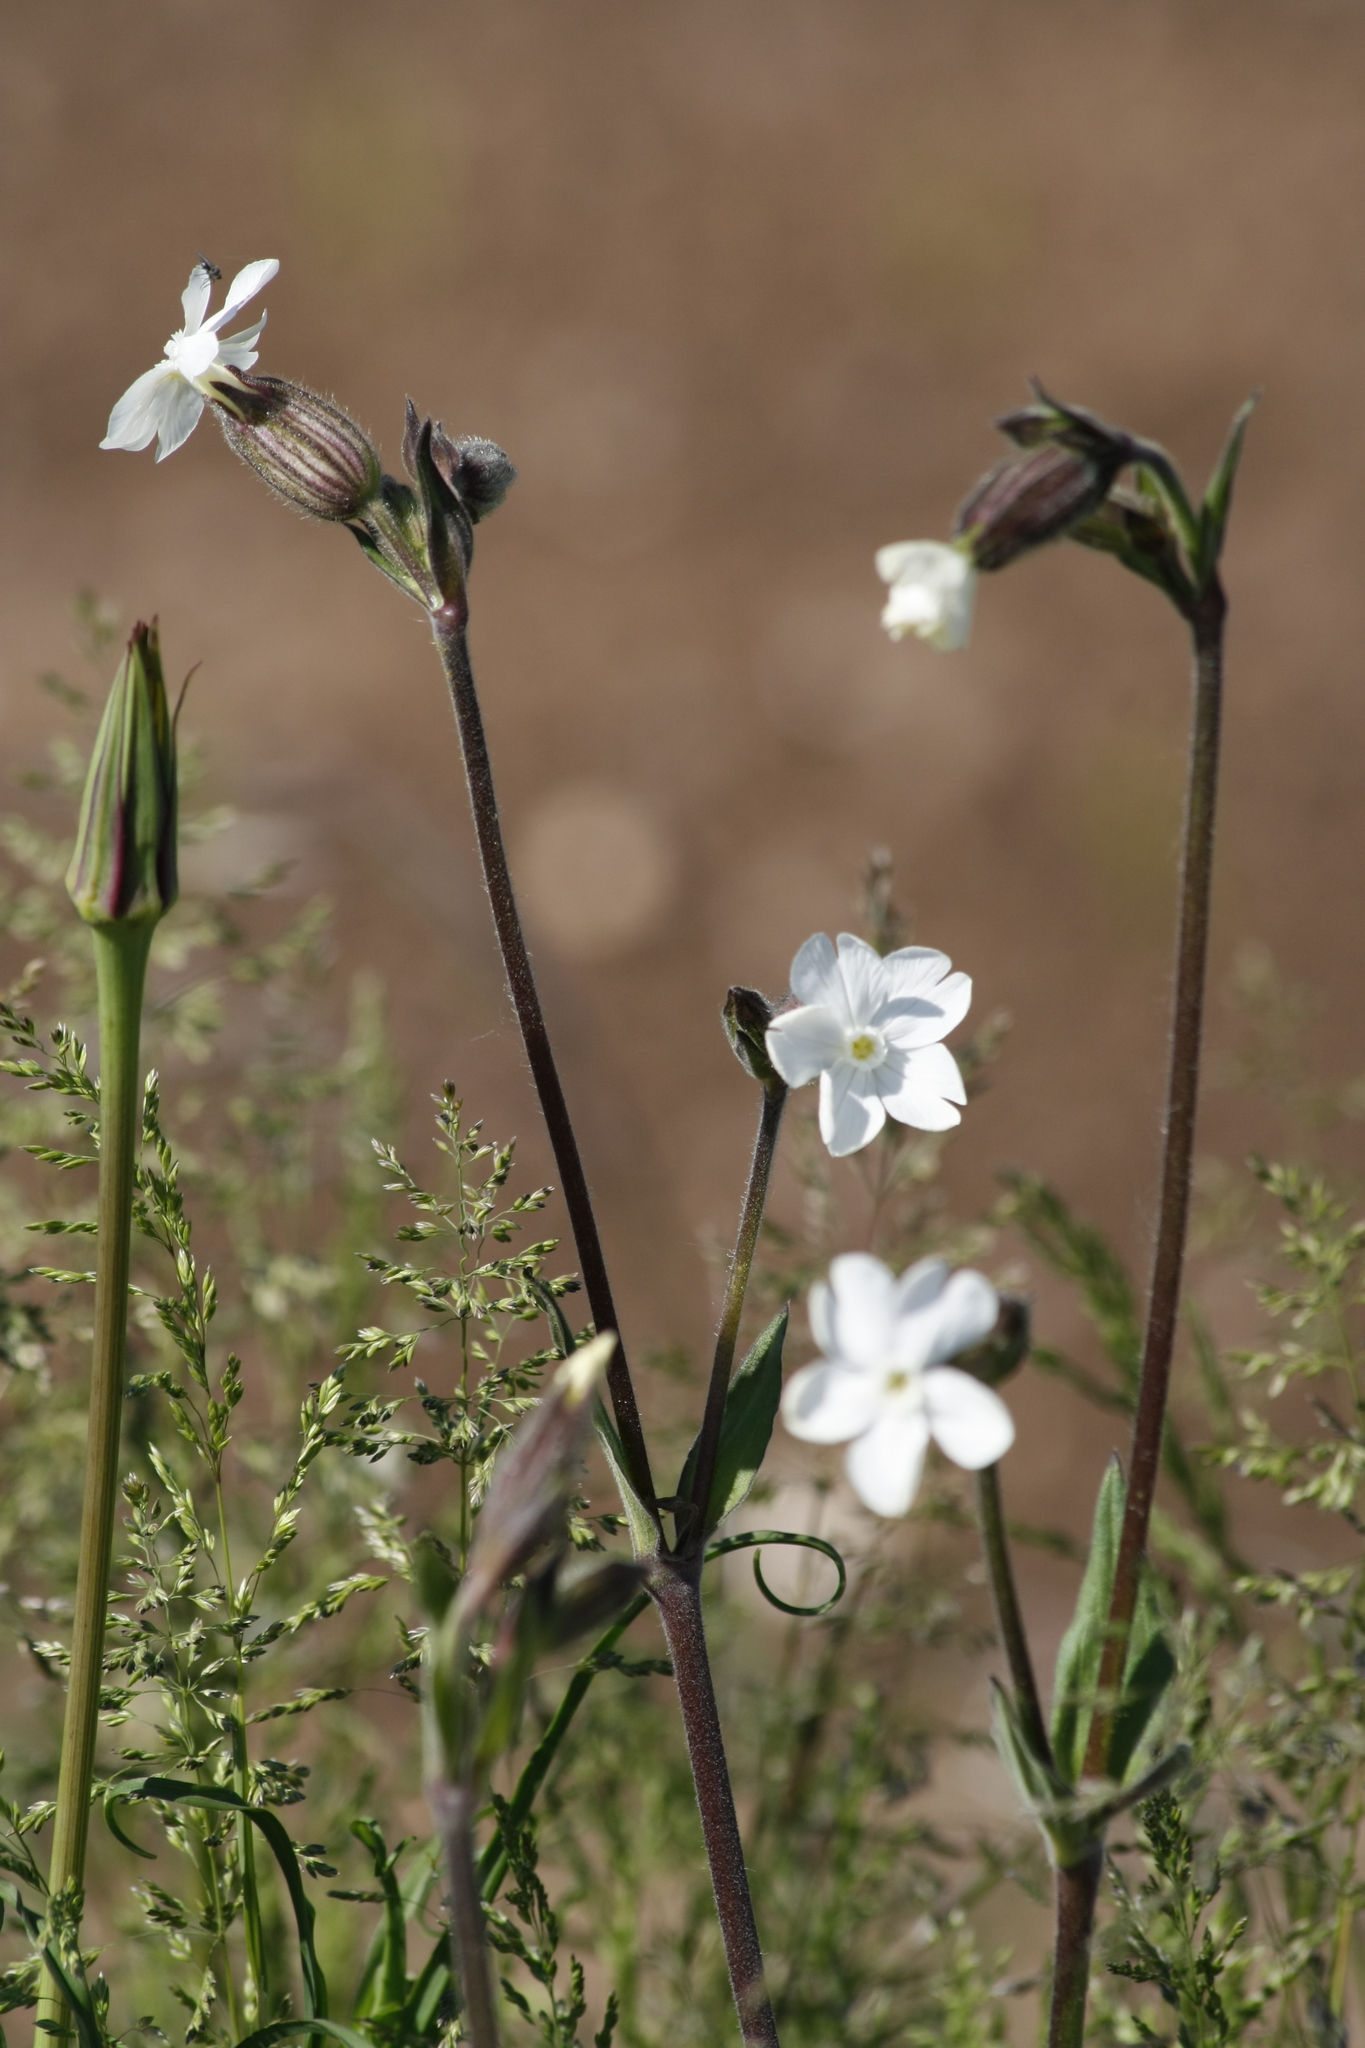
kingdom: Plantae
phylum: Tracheophyta
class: Magnoliopsida
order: Caryophyllales
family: Caryophyllaceae
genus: Silene
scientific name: Silene latifolia
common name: White campion
